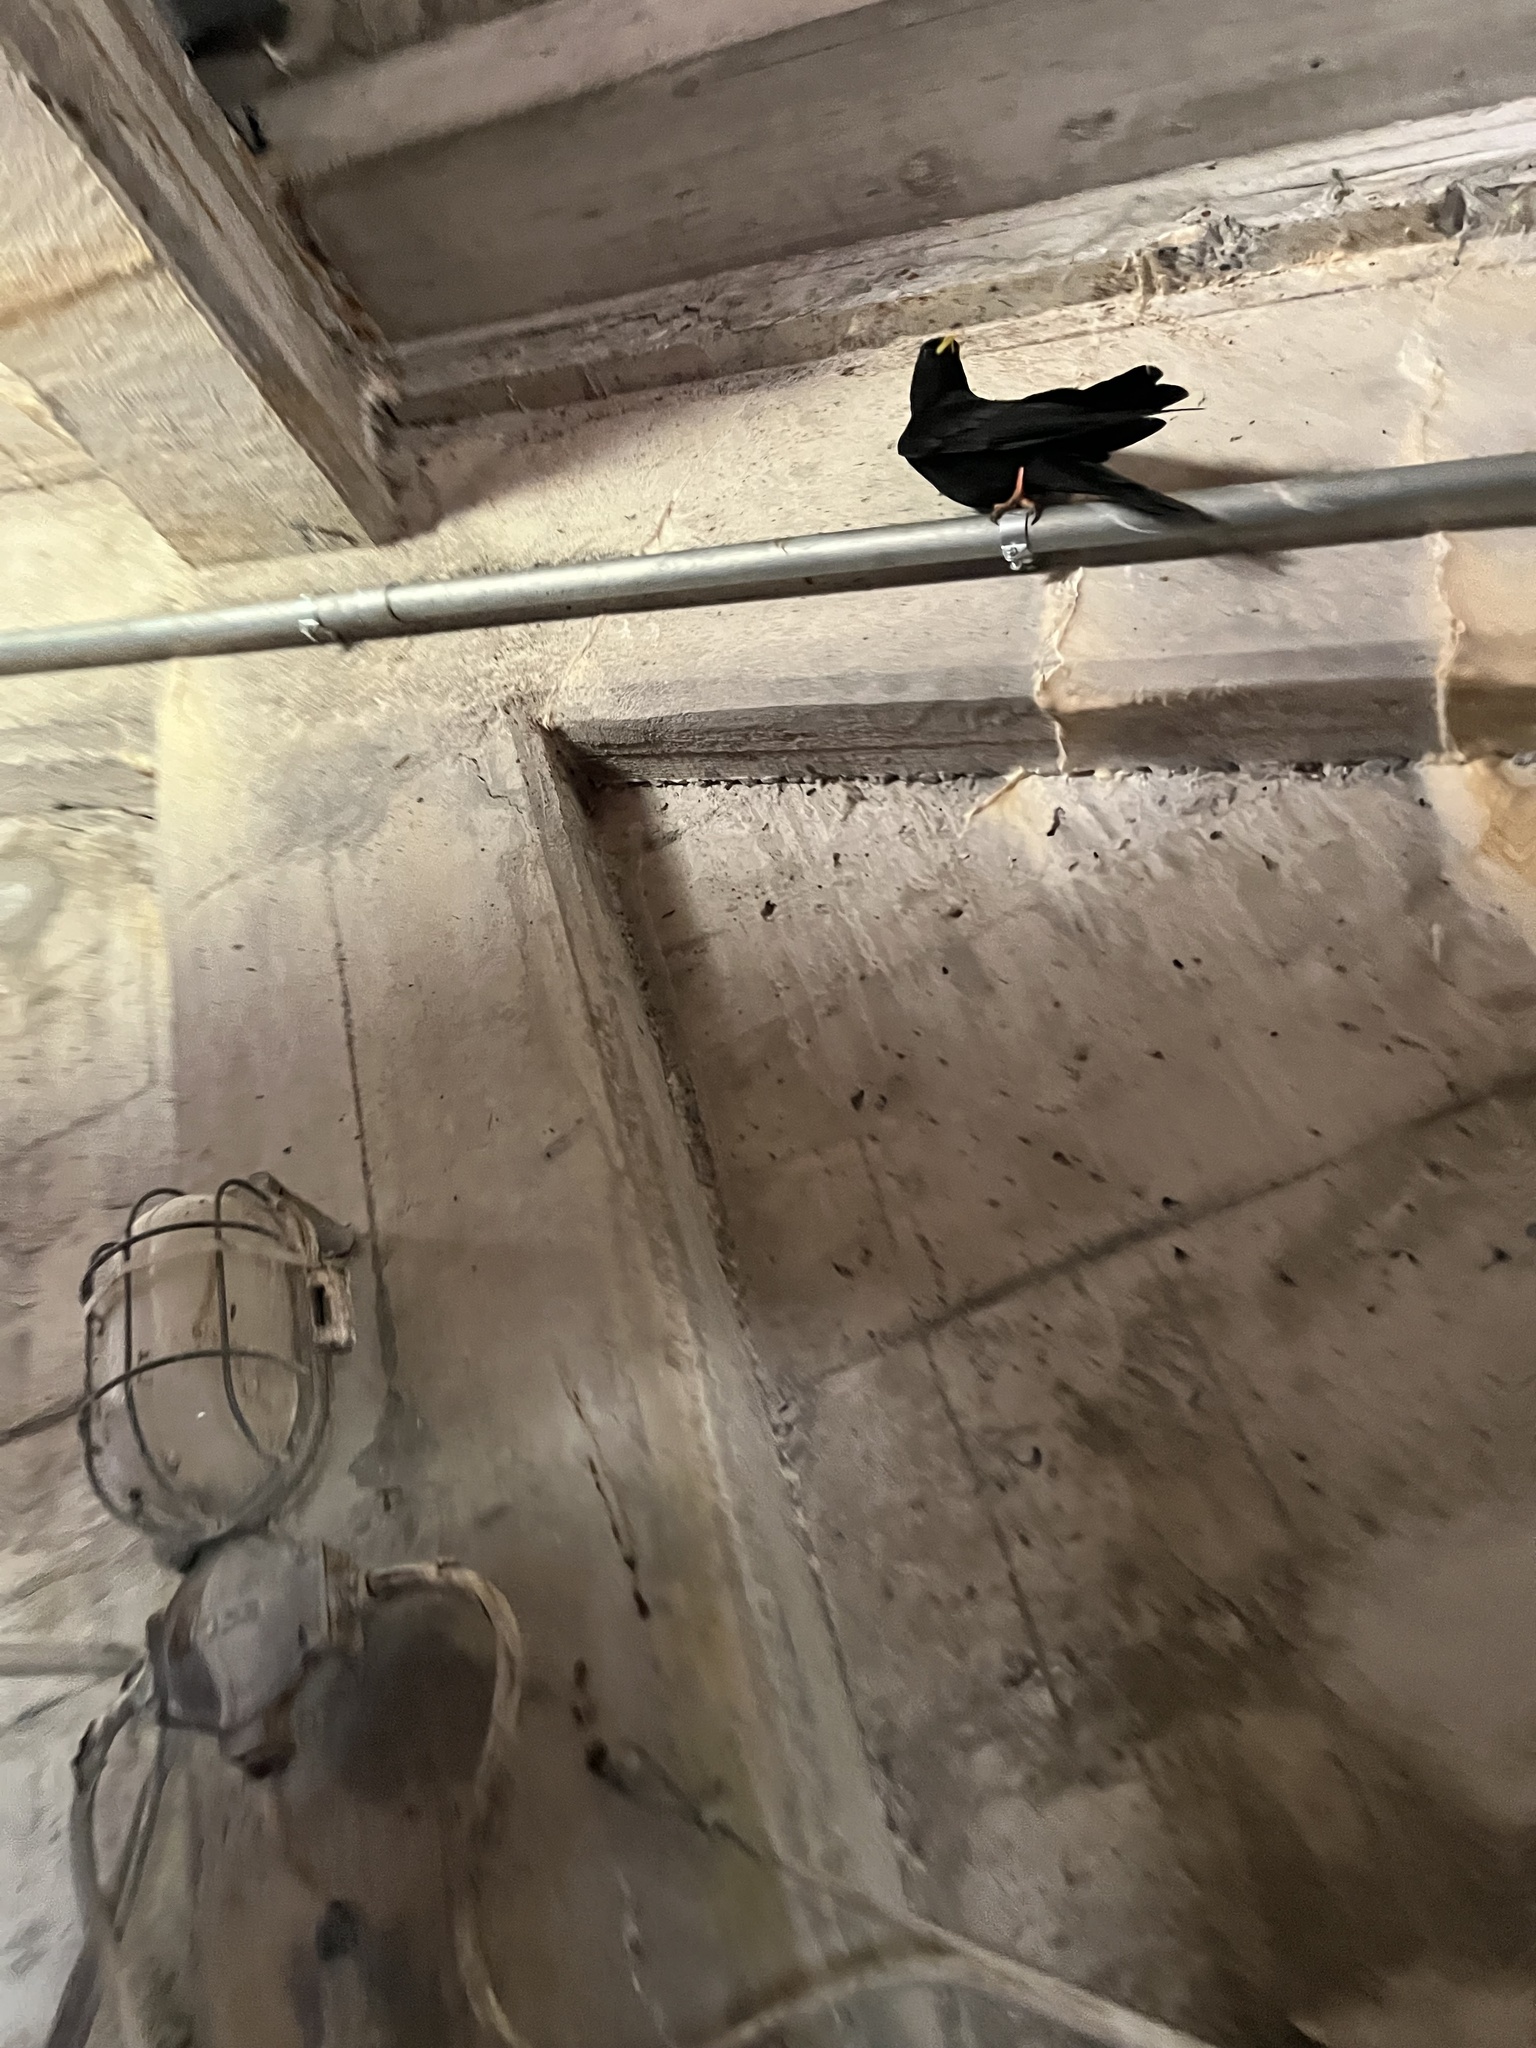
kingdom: Animalia
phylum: Chordata
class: Aves
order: Passeriformes
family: Corvidae
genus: Pyrrhocorax
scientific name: Pyrrhocorax graculus
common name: Alpine chough
